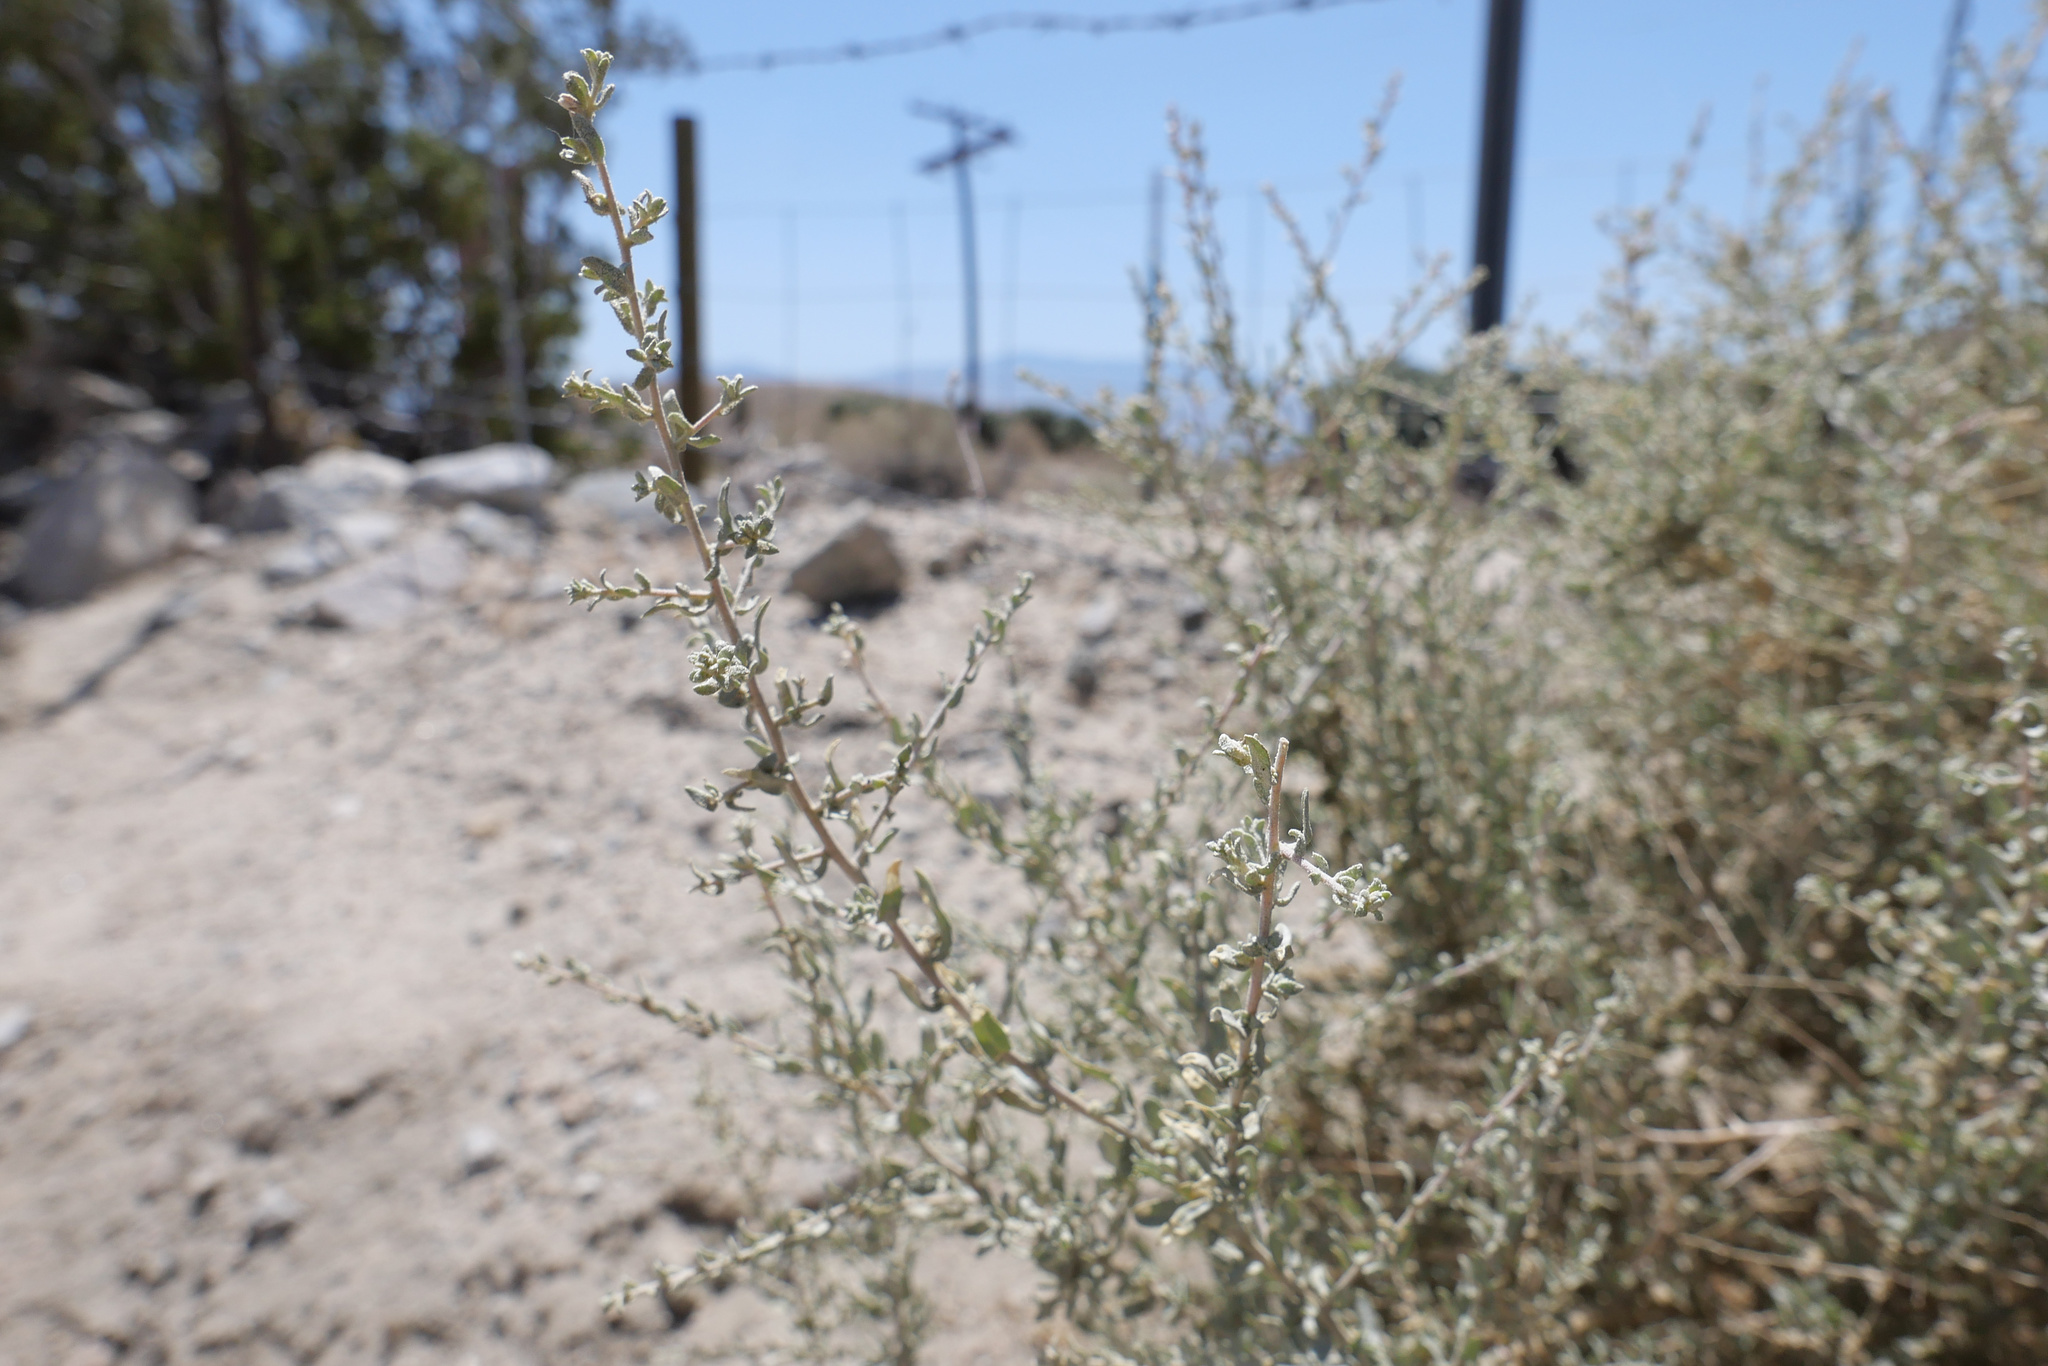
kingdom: Plantae
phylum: Tracheophyta
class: Magnoliopsida
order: Caryophyllales
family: Amaranthaceae
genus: Atriplex
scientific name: Atriplex polycarpa
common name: Desert saltbush
